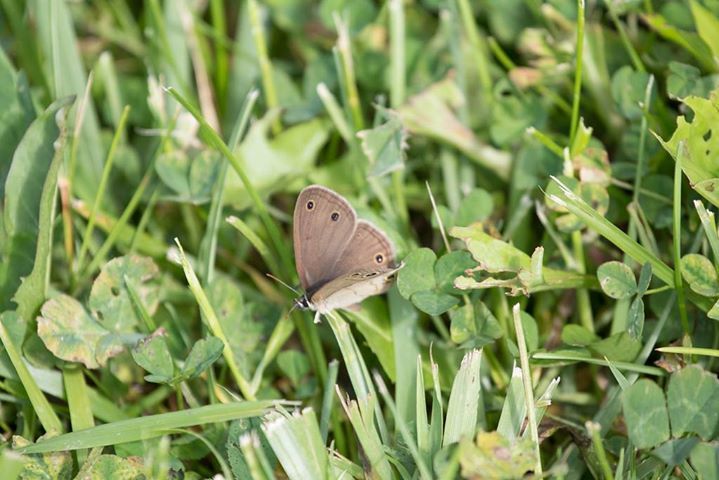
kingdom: Animalia
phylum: Arthropoda
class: Insecta
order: Lepidoptera
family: Nymphalidae
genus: Euptychia
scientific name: Euptychia cymela
